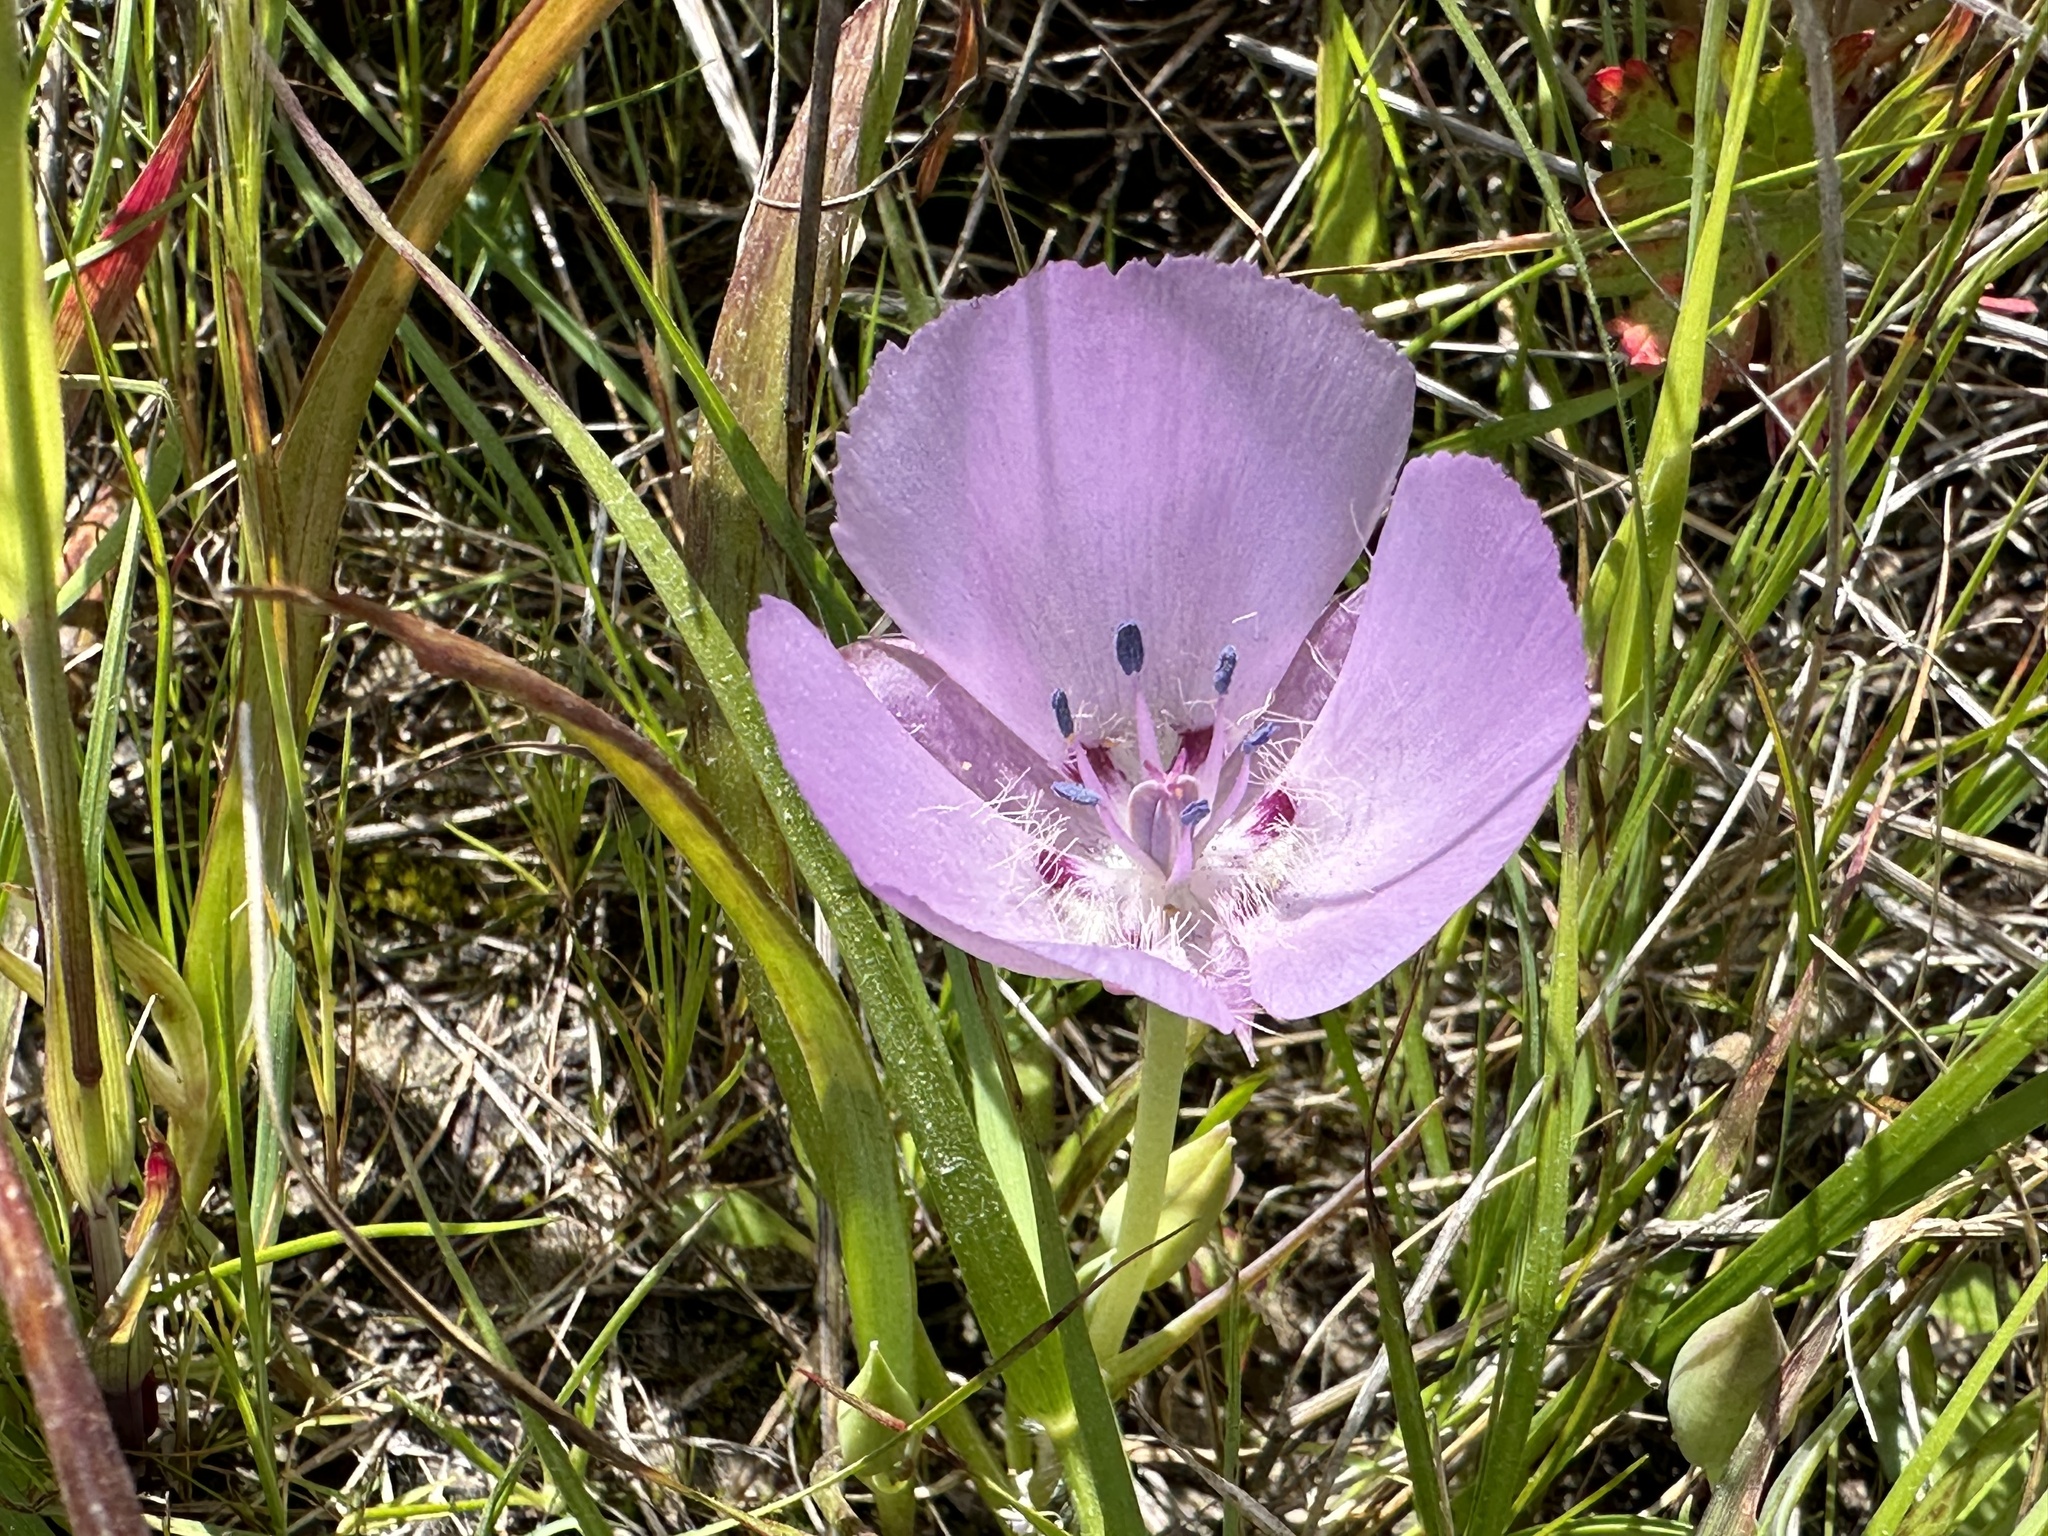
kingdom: Plantae
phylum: Tracheophyta
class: Liliopsida
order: Liliales
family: Liliaceae
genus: Calochortus
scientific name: Calochortus uniflorus
